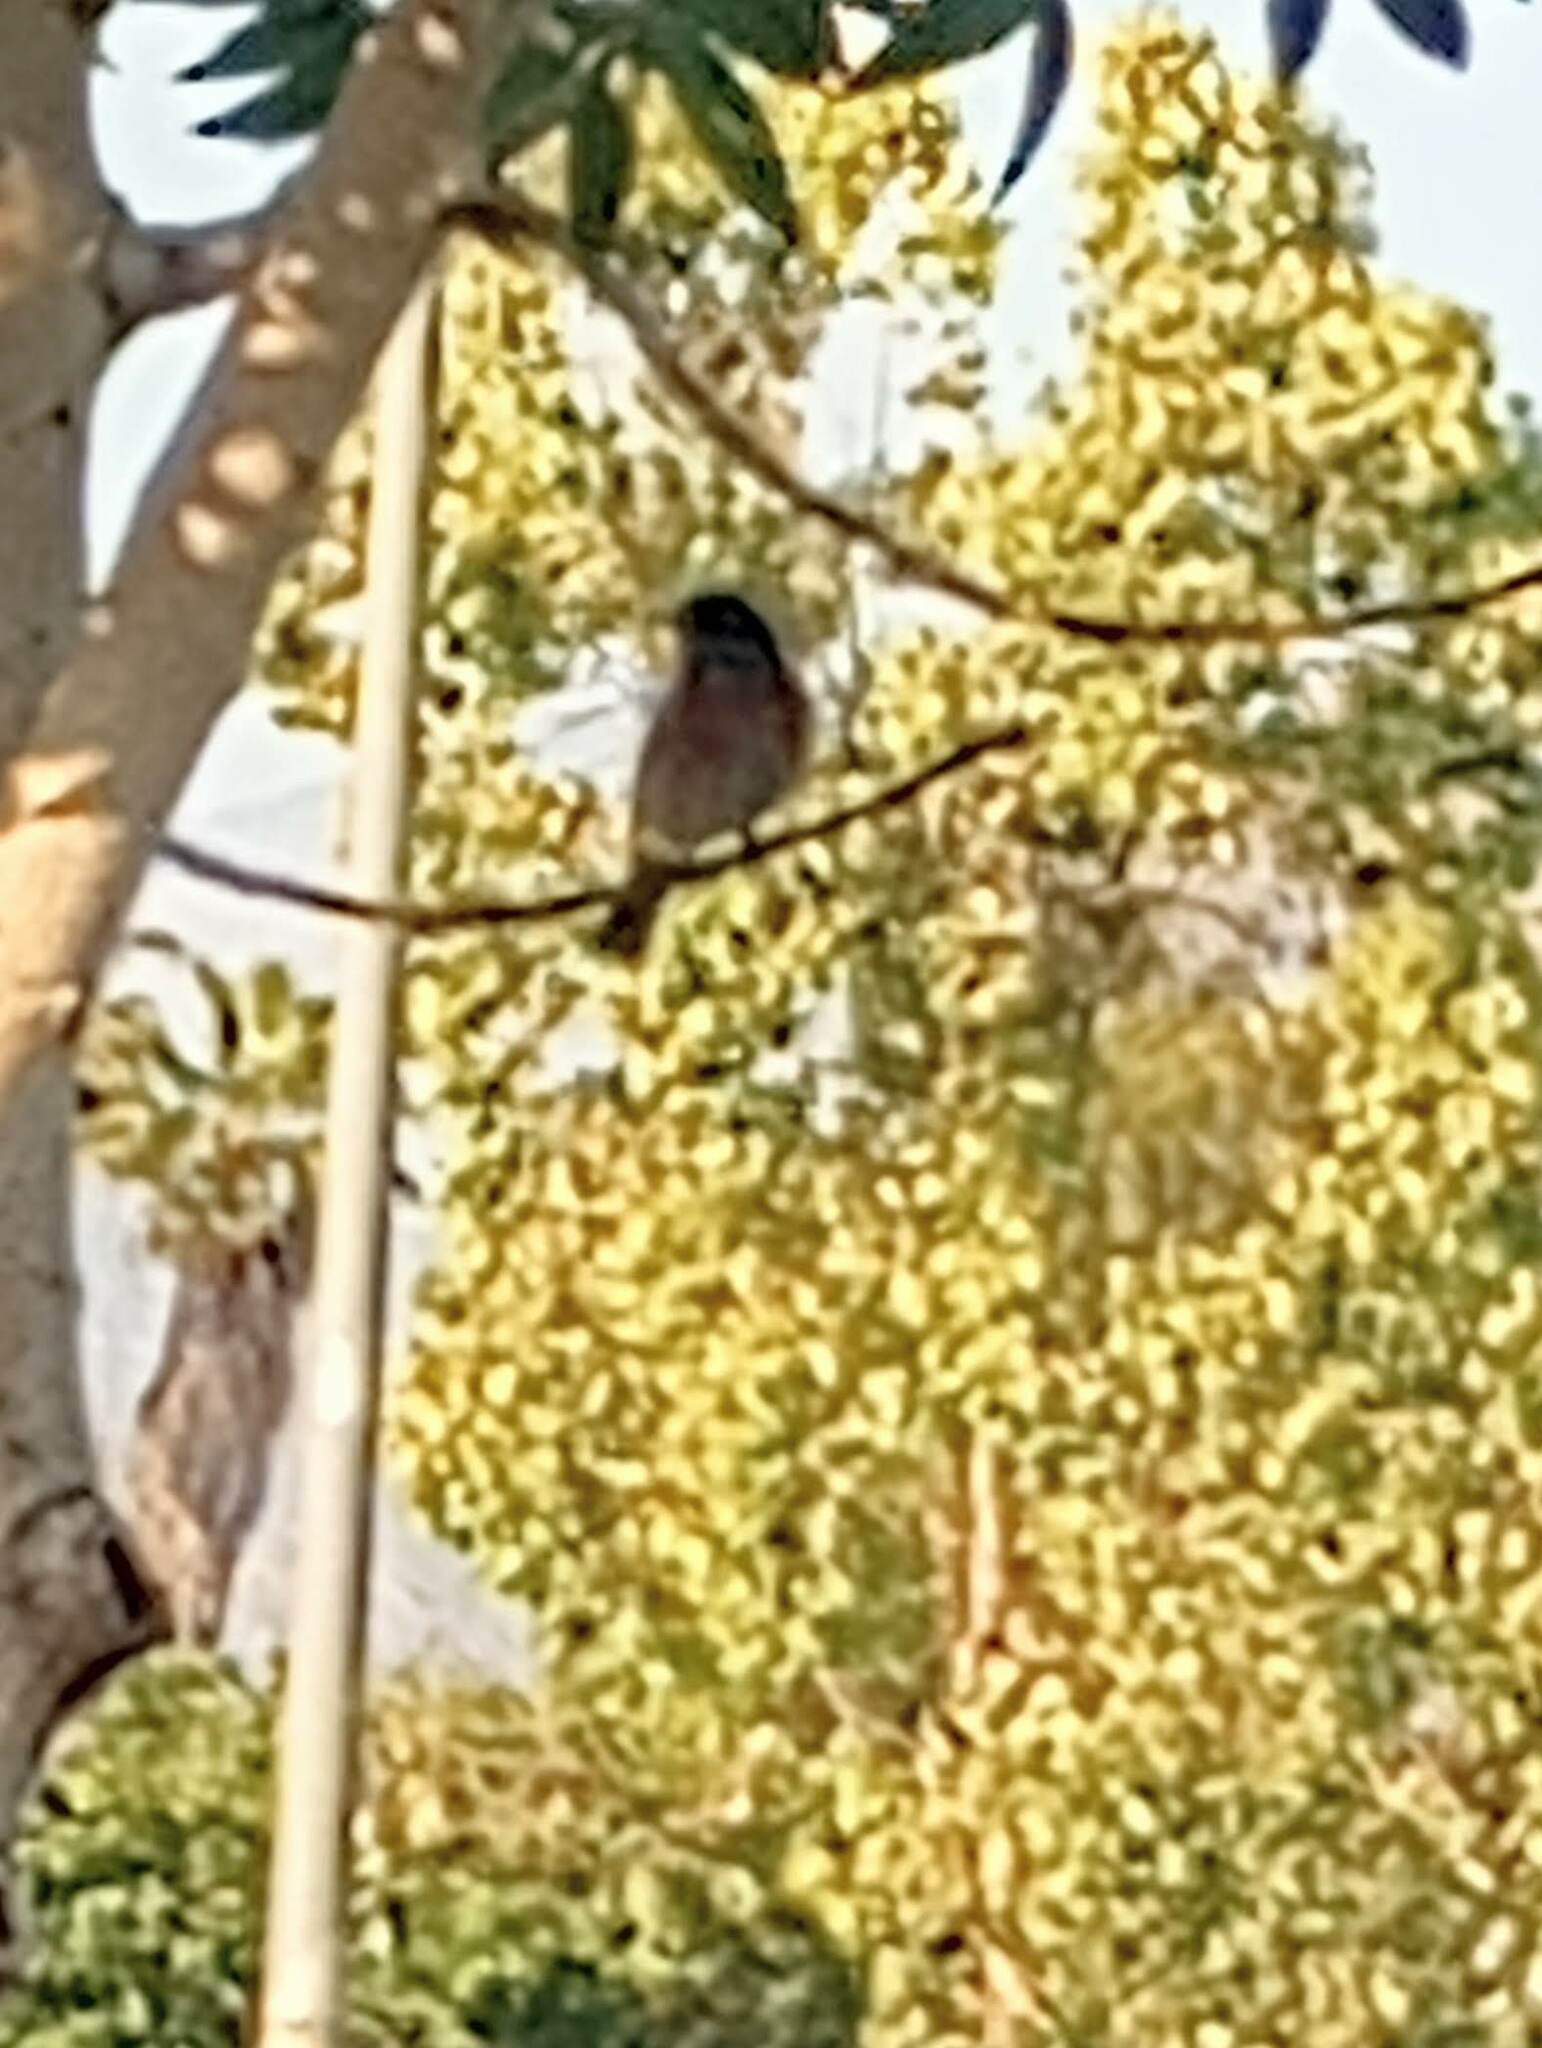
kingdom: Animalia
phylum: Chordata
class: Aves
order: Passeriformes
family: Turdidae
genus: Sialia
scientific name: Sialia mexicana
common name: Western bluebird
